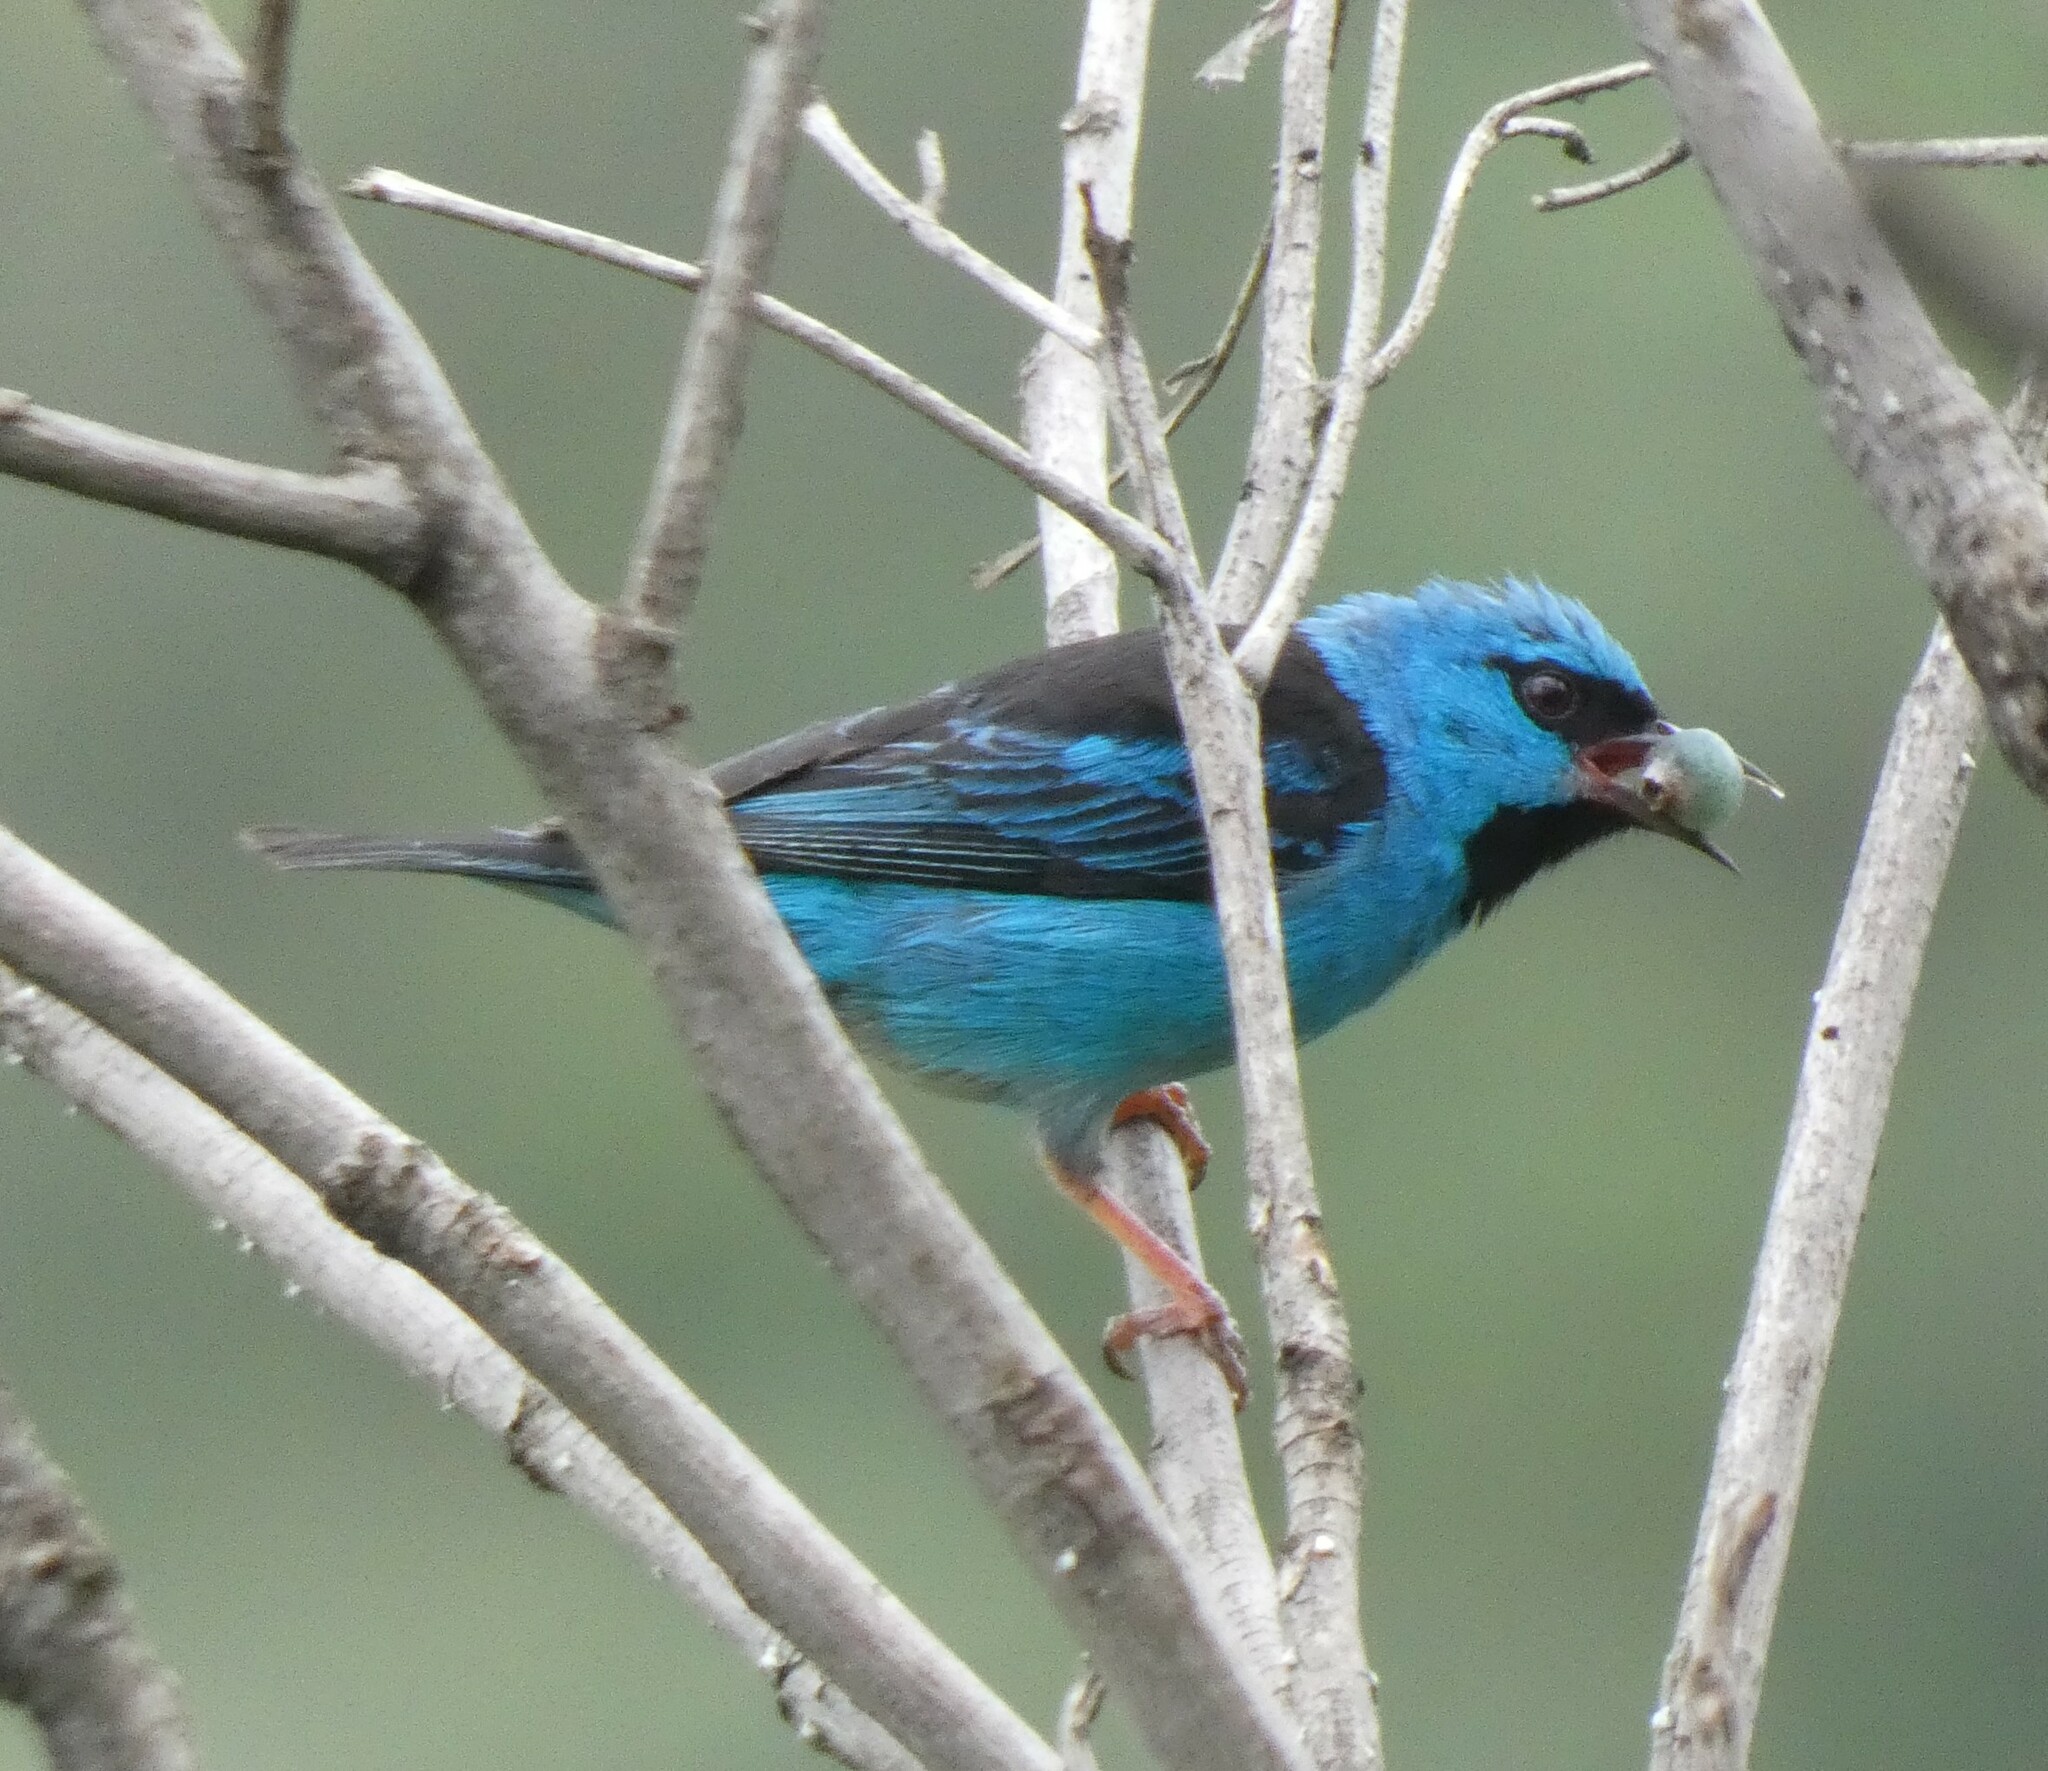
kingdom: Animalia
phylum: Chordata
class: Aves
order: Passeriformes
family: Thraupidae
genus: Dacnis
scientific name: Dacnis cayana
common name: Blue dacnis
